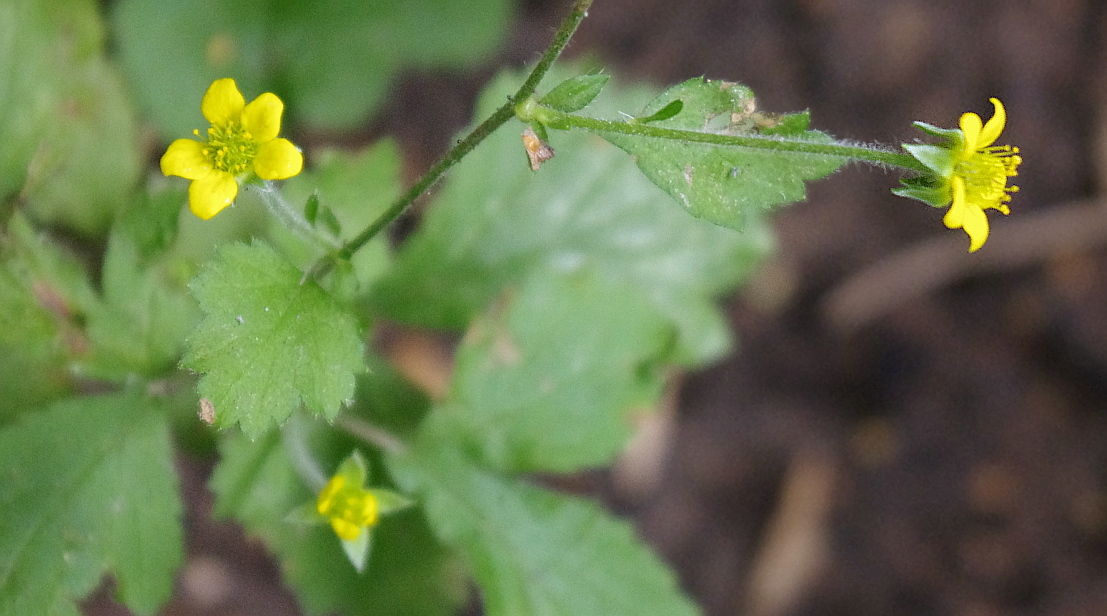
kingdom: Plantae
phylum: Tracheophyta
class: Magnoliopsida
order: Rosales
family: Rosaceae
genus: Geum
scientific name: Geum urbanum
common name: Wood avens
